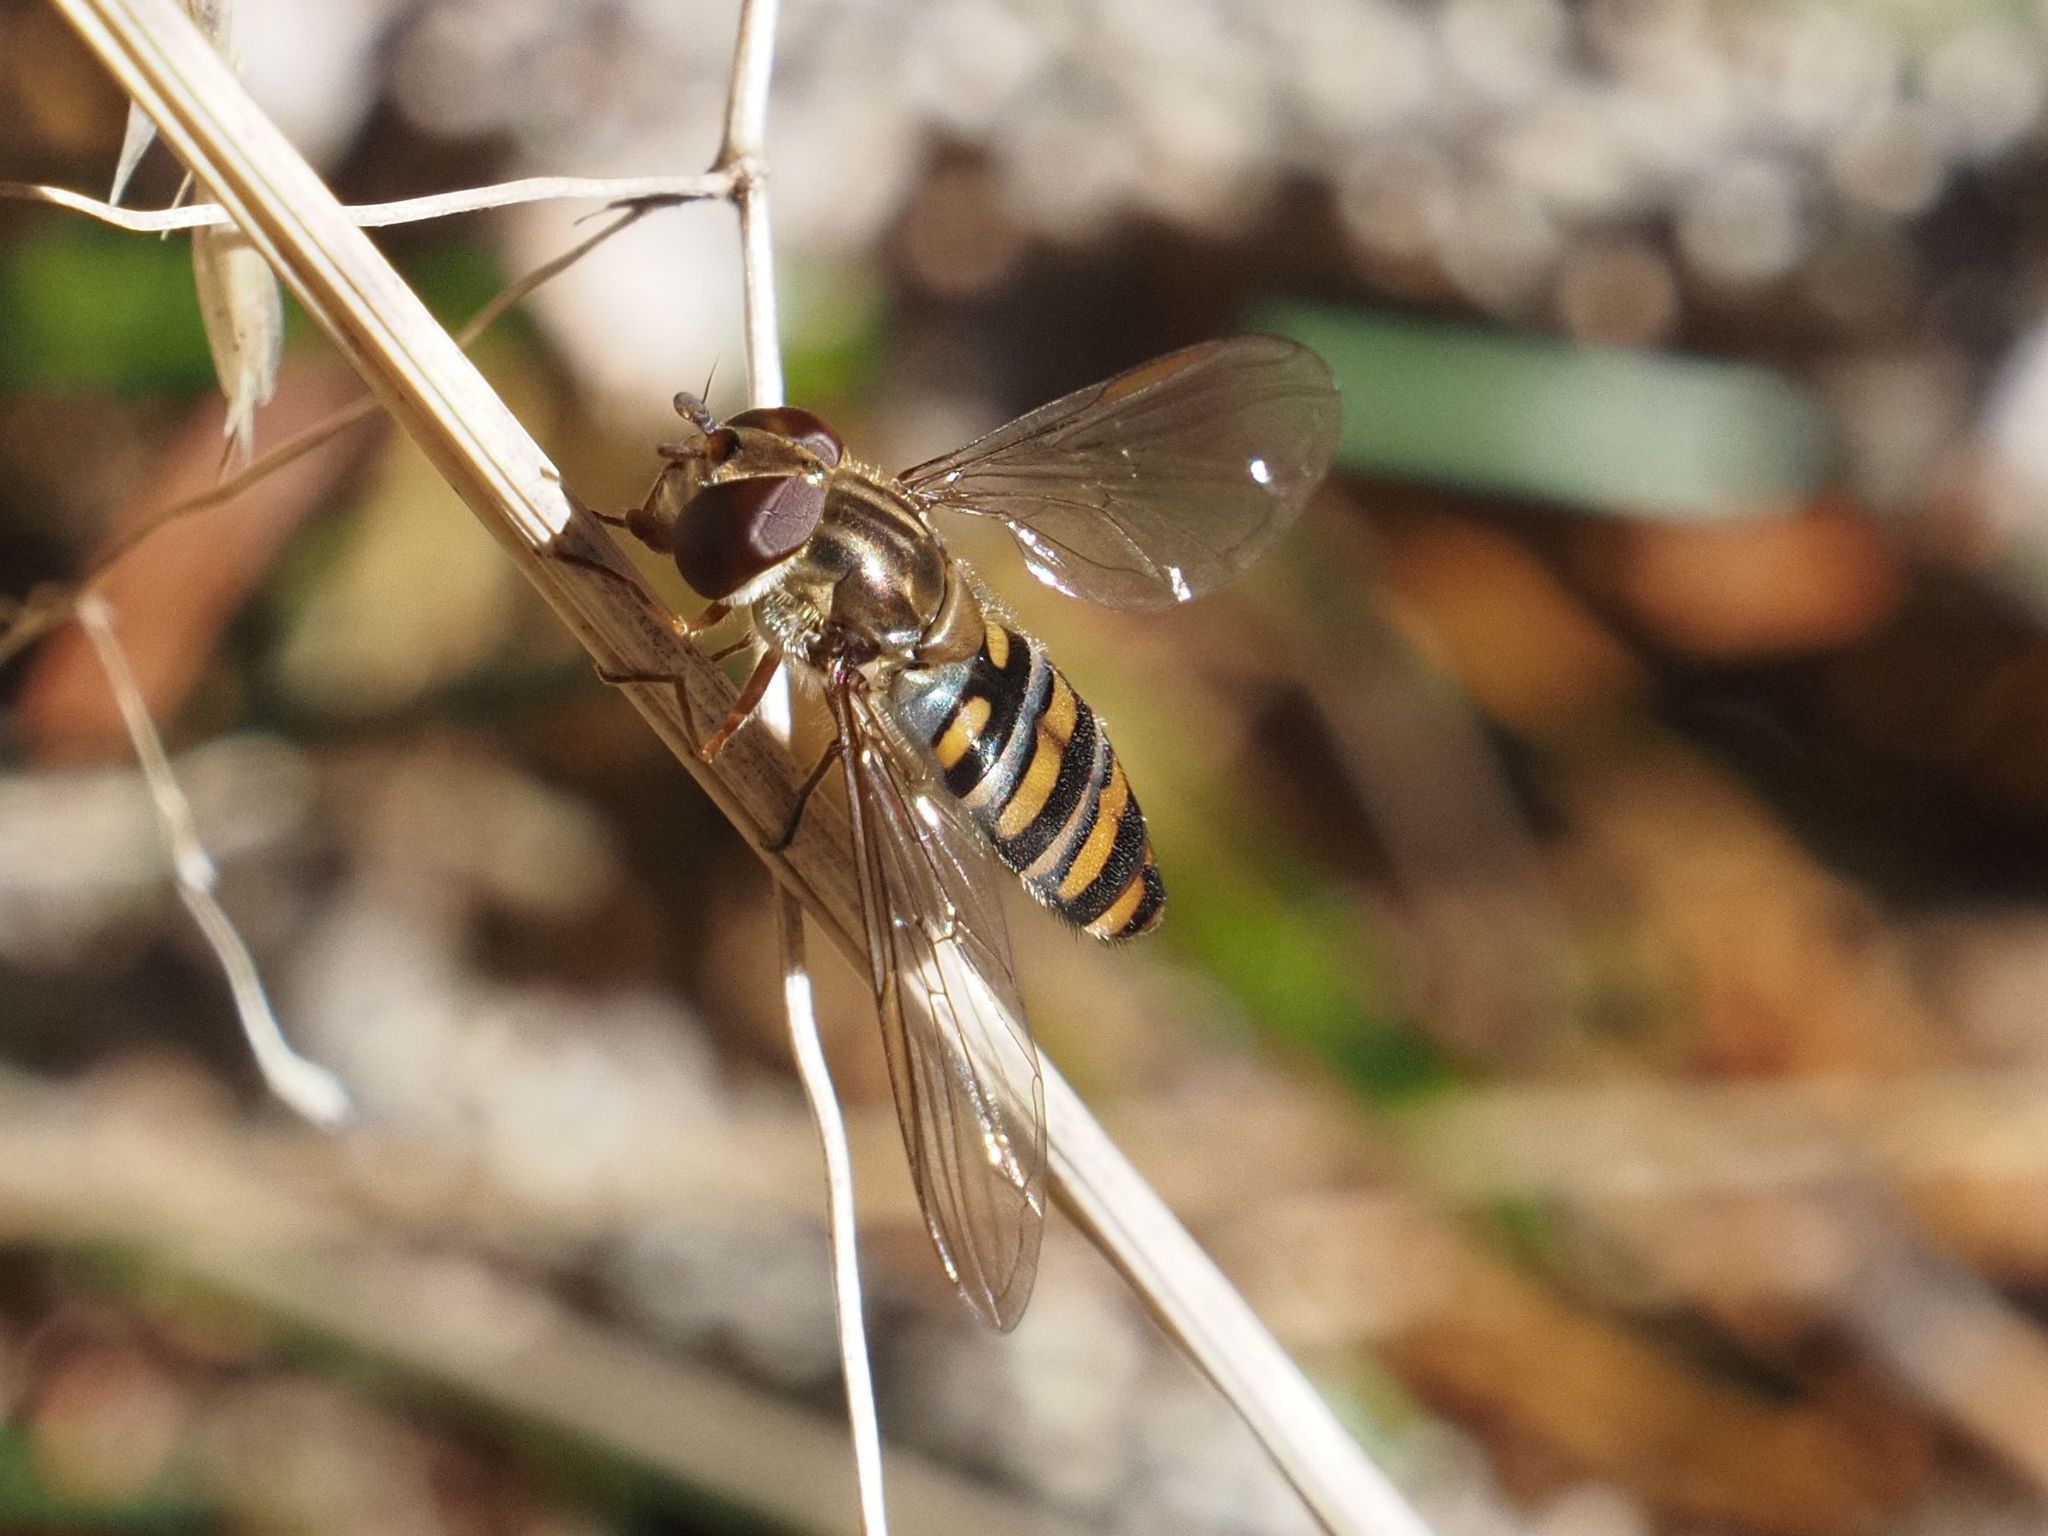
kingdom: Animalia
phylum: Arthropoda
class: Insecta
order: Diptera
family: Syrphidae
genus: Episyrphus
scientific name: Episyrphus balteatus
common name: Marmalade hoverfly
